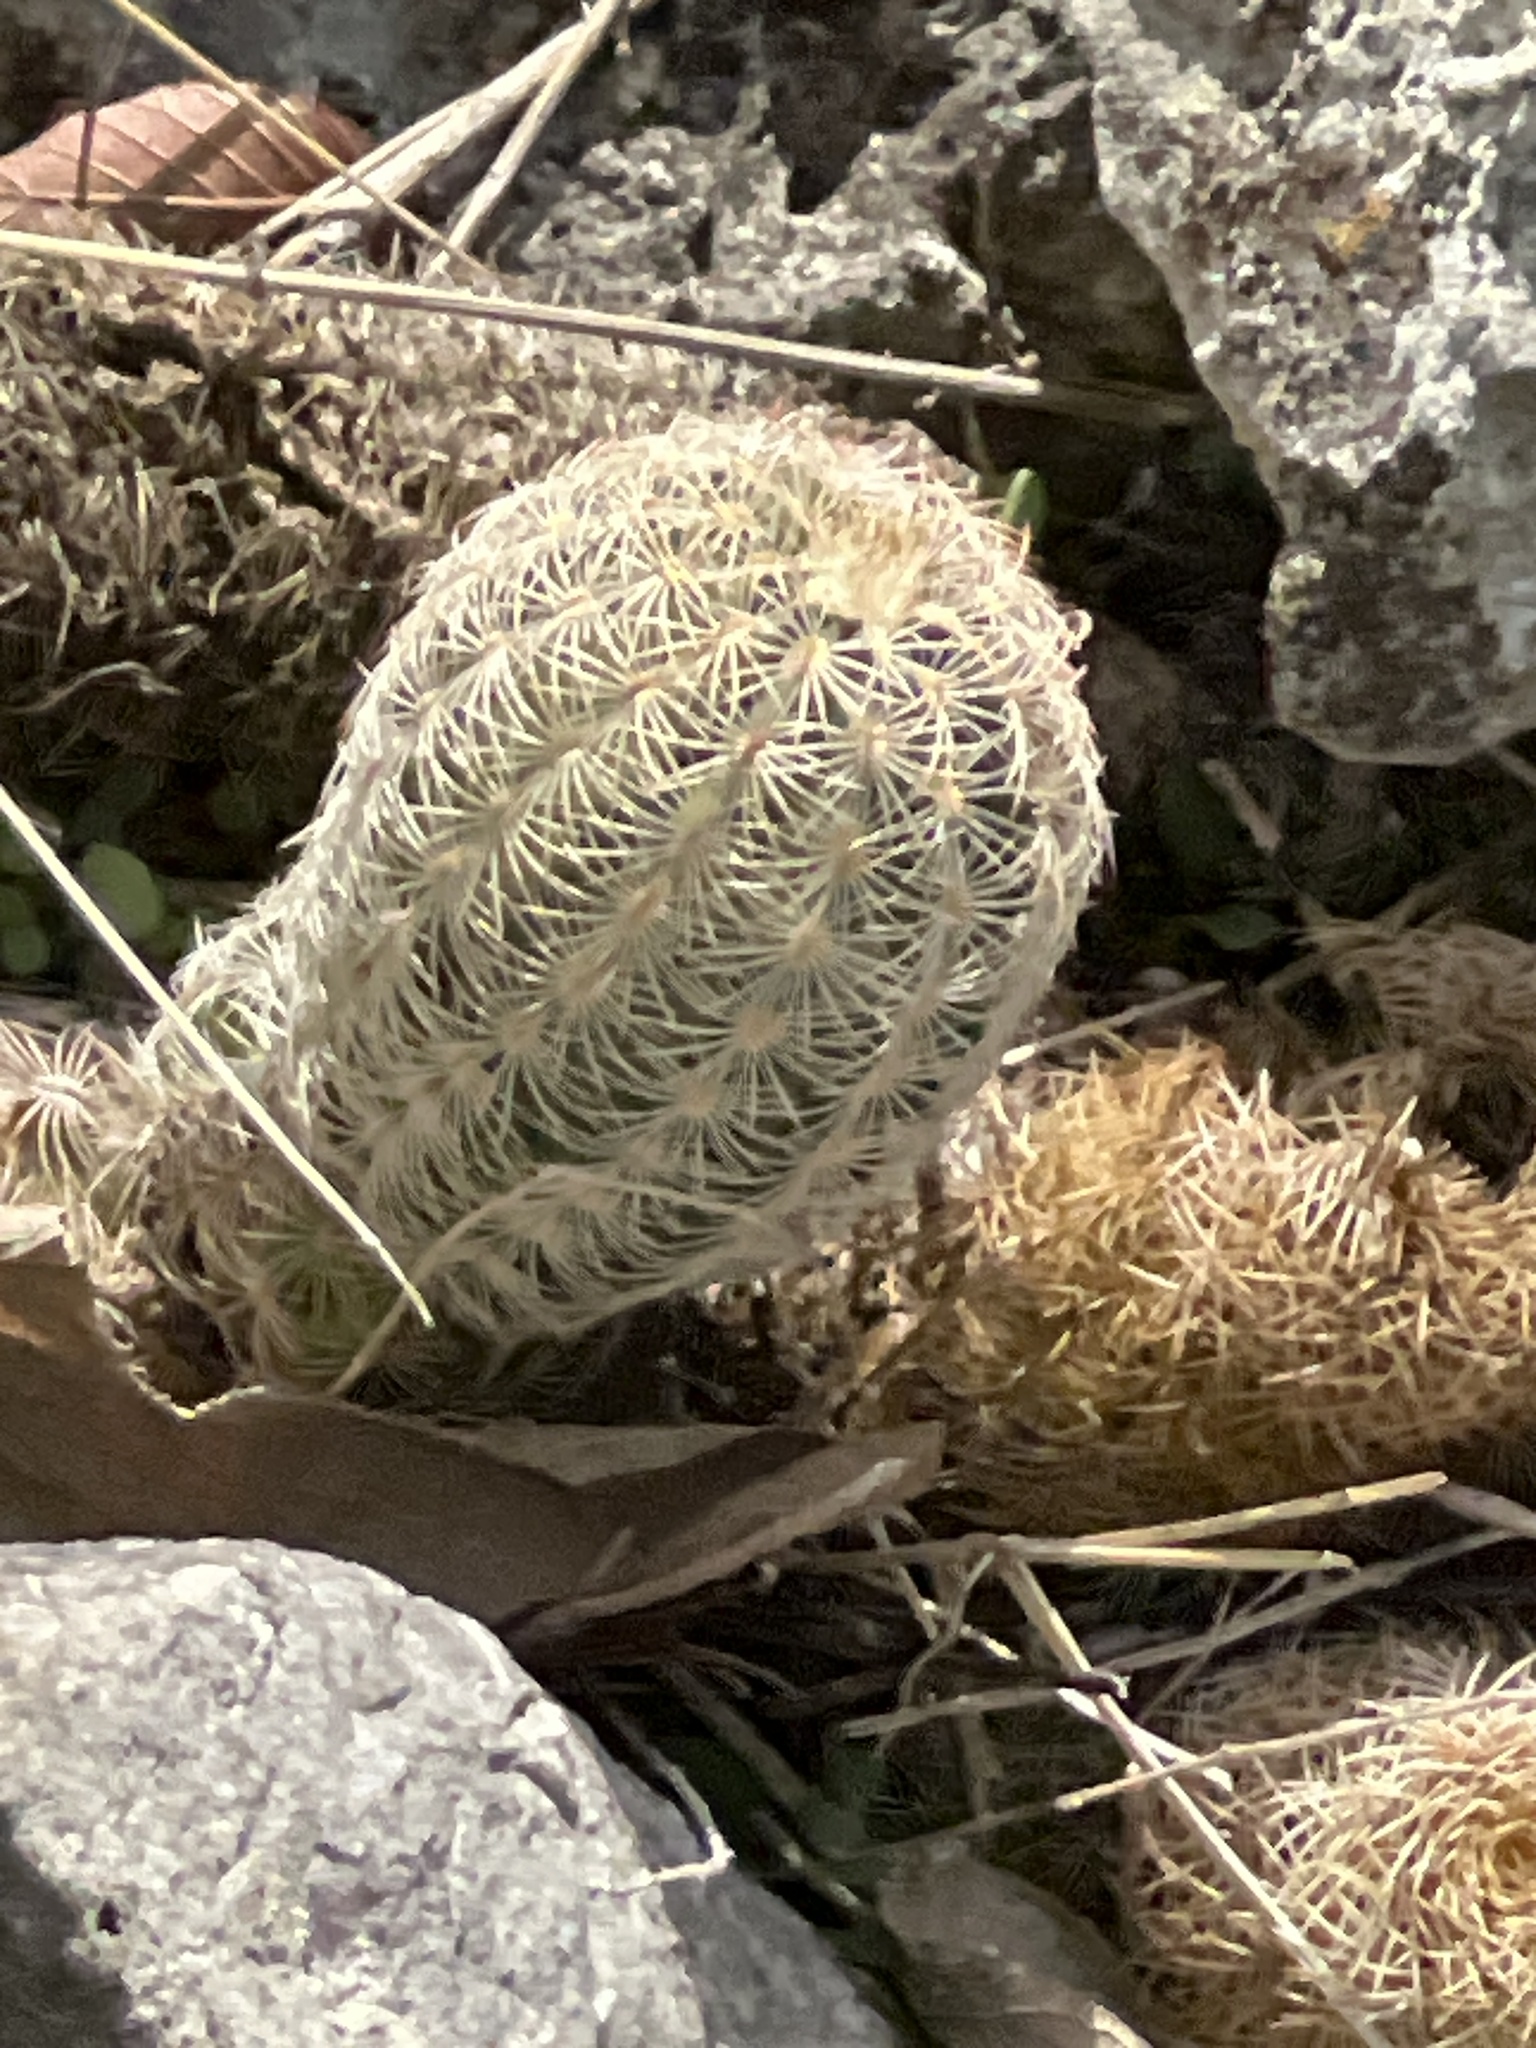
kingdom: Plantae
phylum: Tracheophyta
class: Magnoliopsida
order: Caryophyllales
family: Cactaceae
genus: Echinocereus
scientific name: Echinocereus reichenbachii
